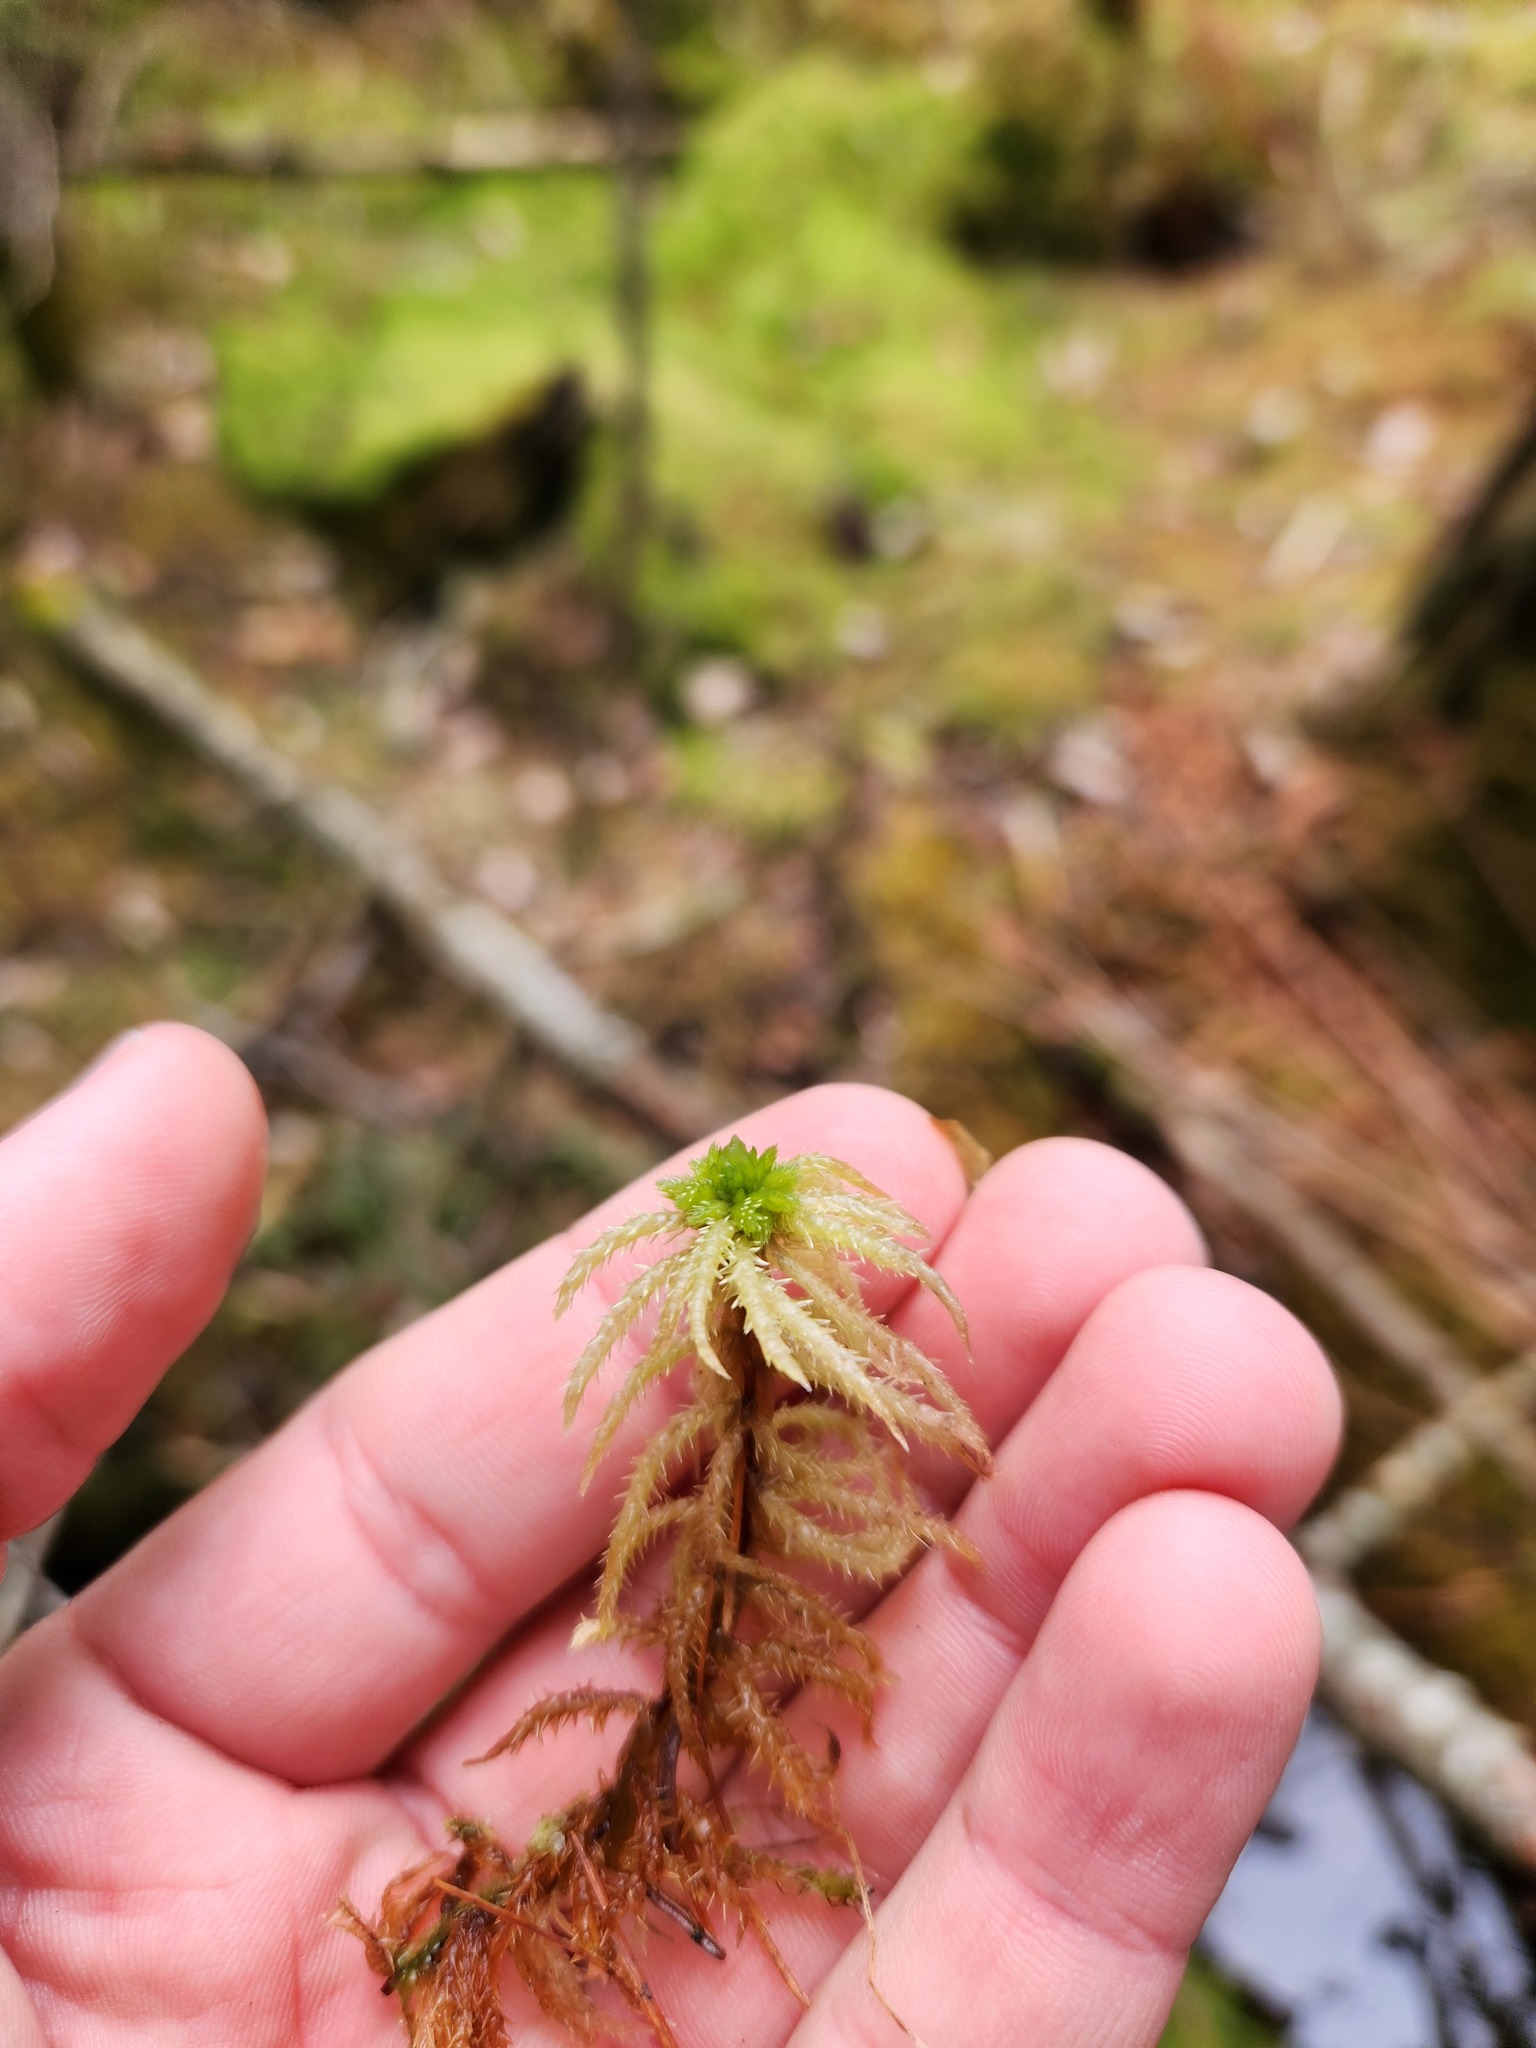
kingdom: Plantae
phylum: Bryophyta
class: Sphagnopsida
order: Sphagnales
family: Sphagnaceae
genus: Sphagnum
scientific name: Sphagnum squarrosum
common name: Shaggy peat moss
